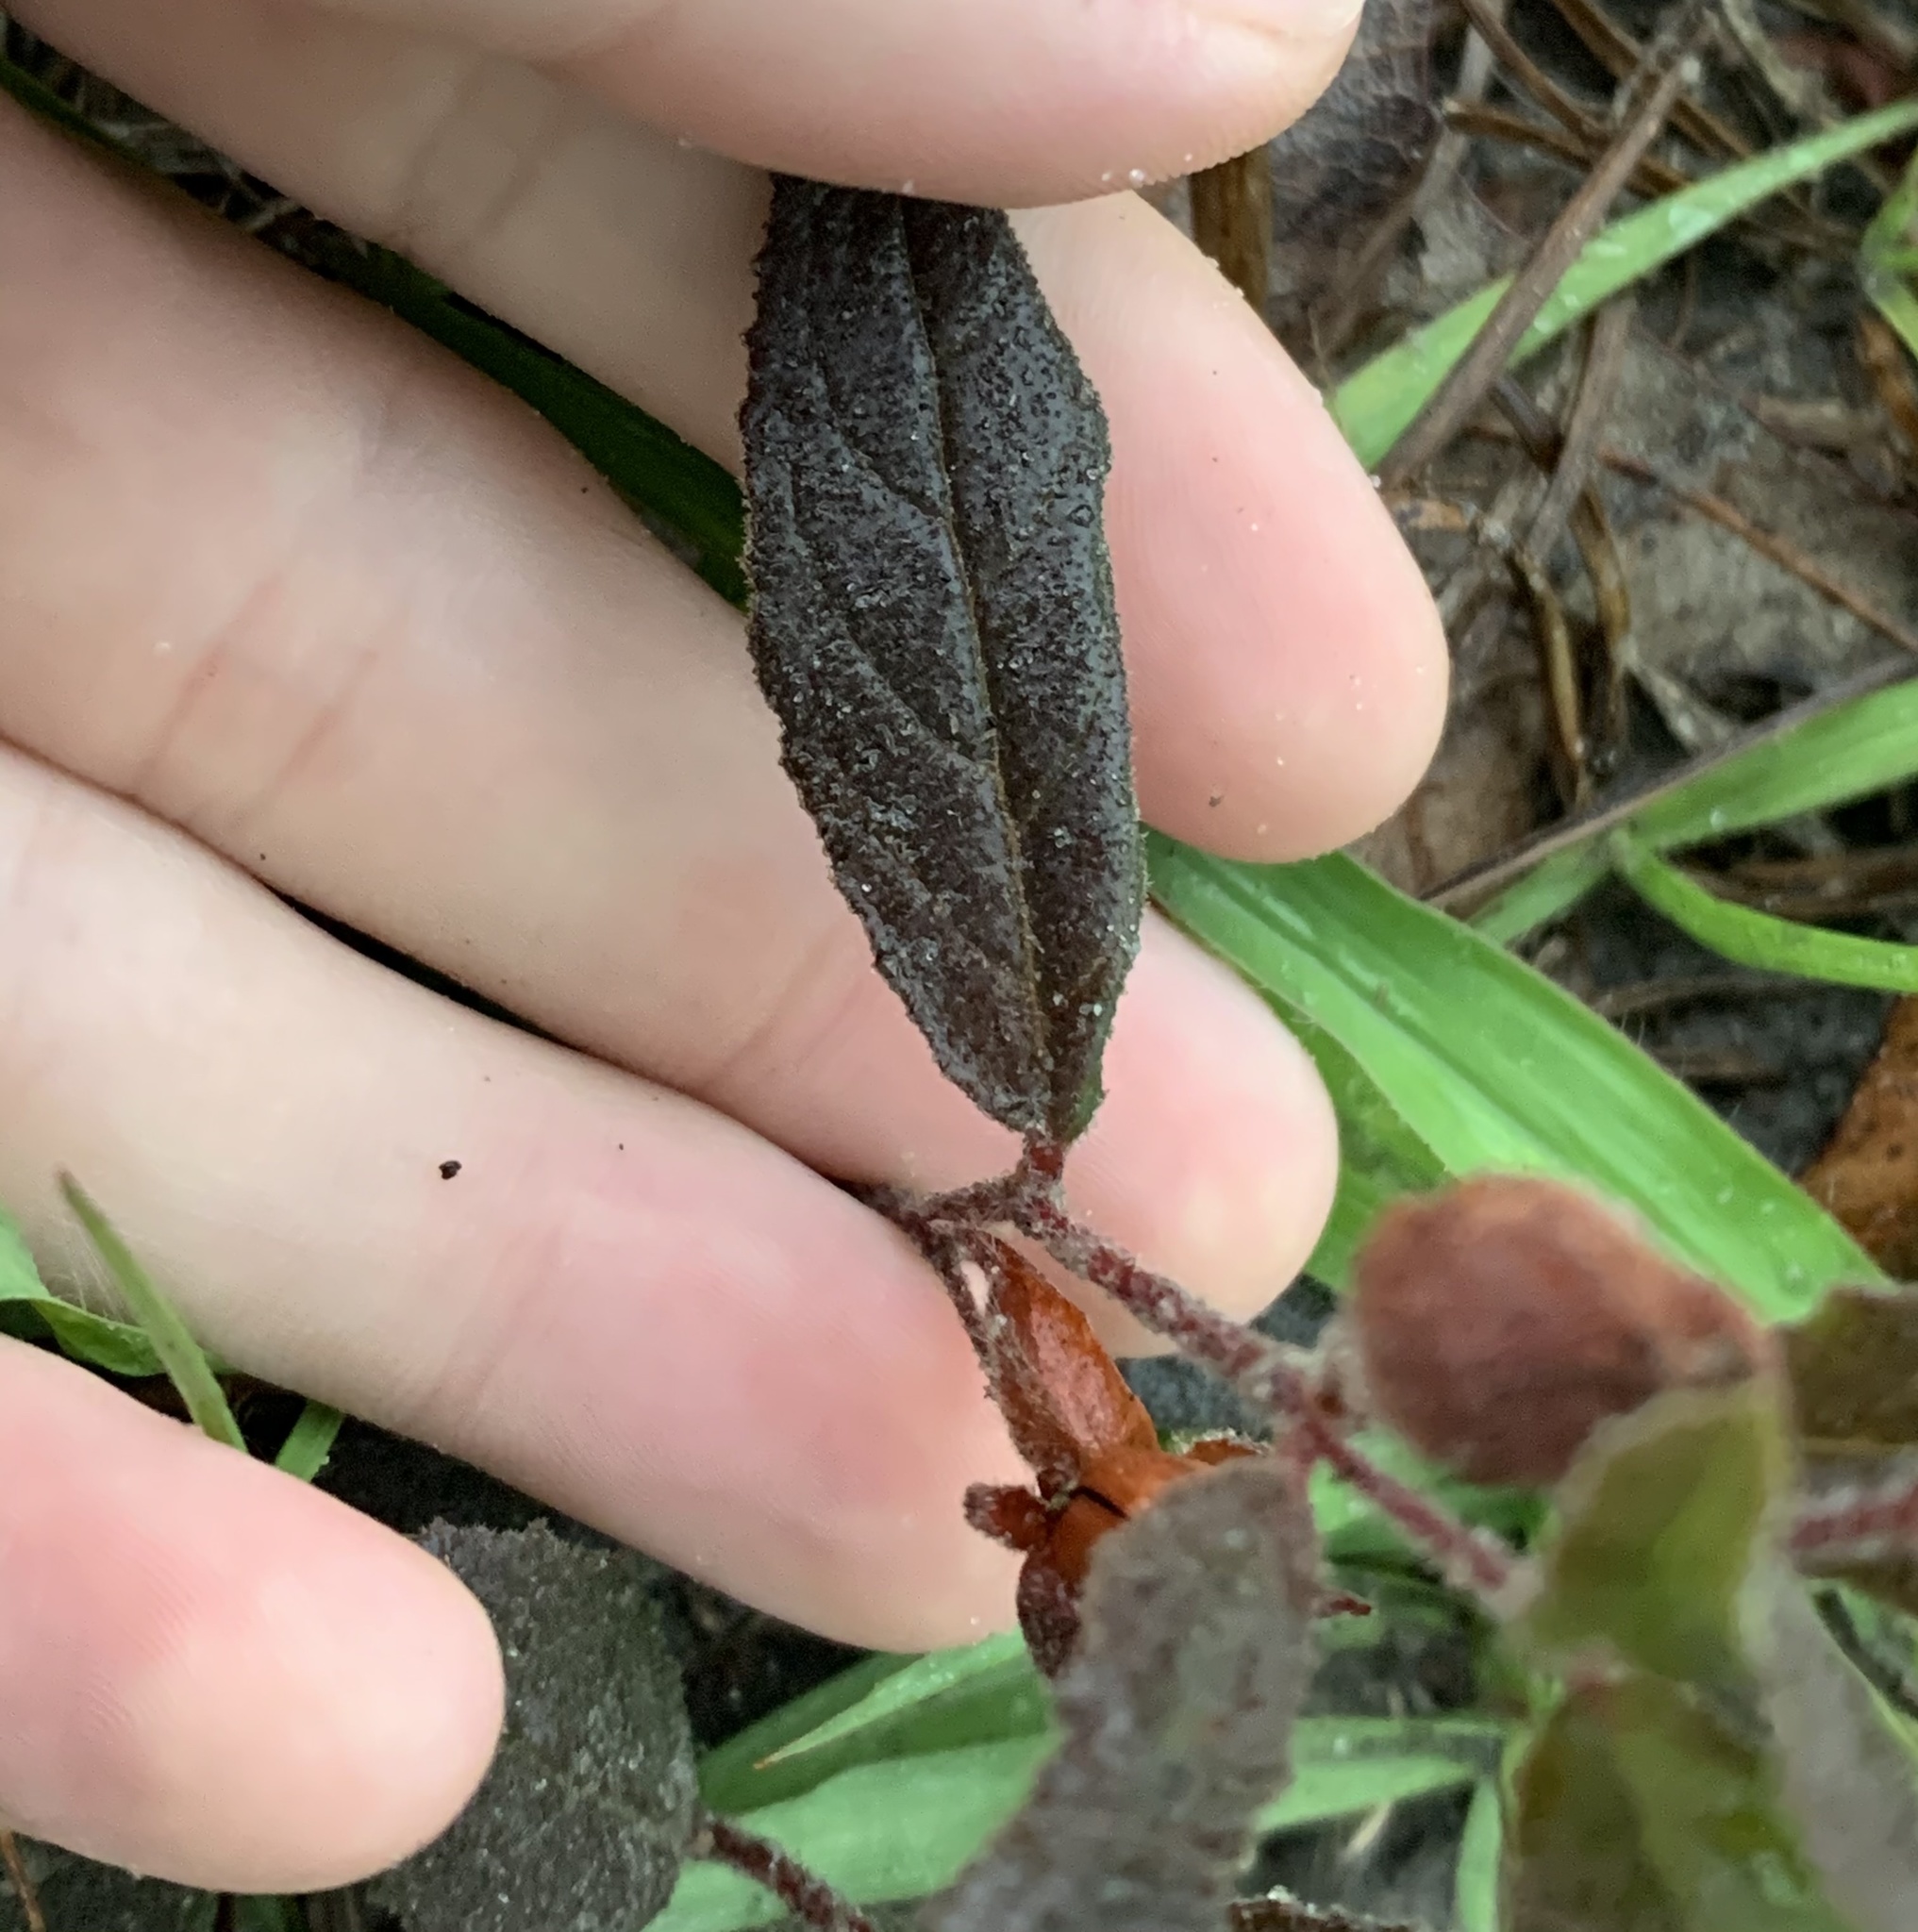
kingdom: Plantae
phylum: Tracheophyta
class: Magnoliopsida
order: Malvales
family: Cistaceae
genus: Crocanthemum
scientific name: Crocanthemum carolinianum
